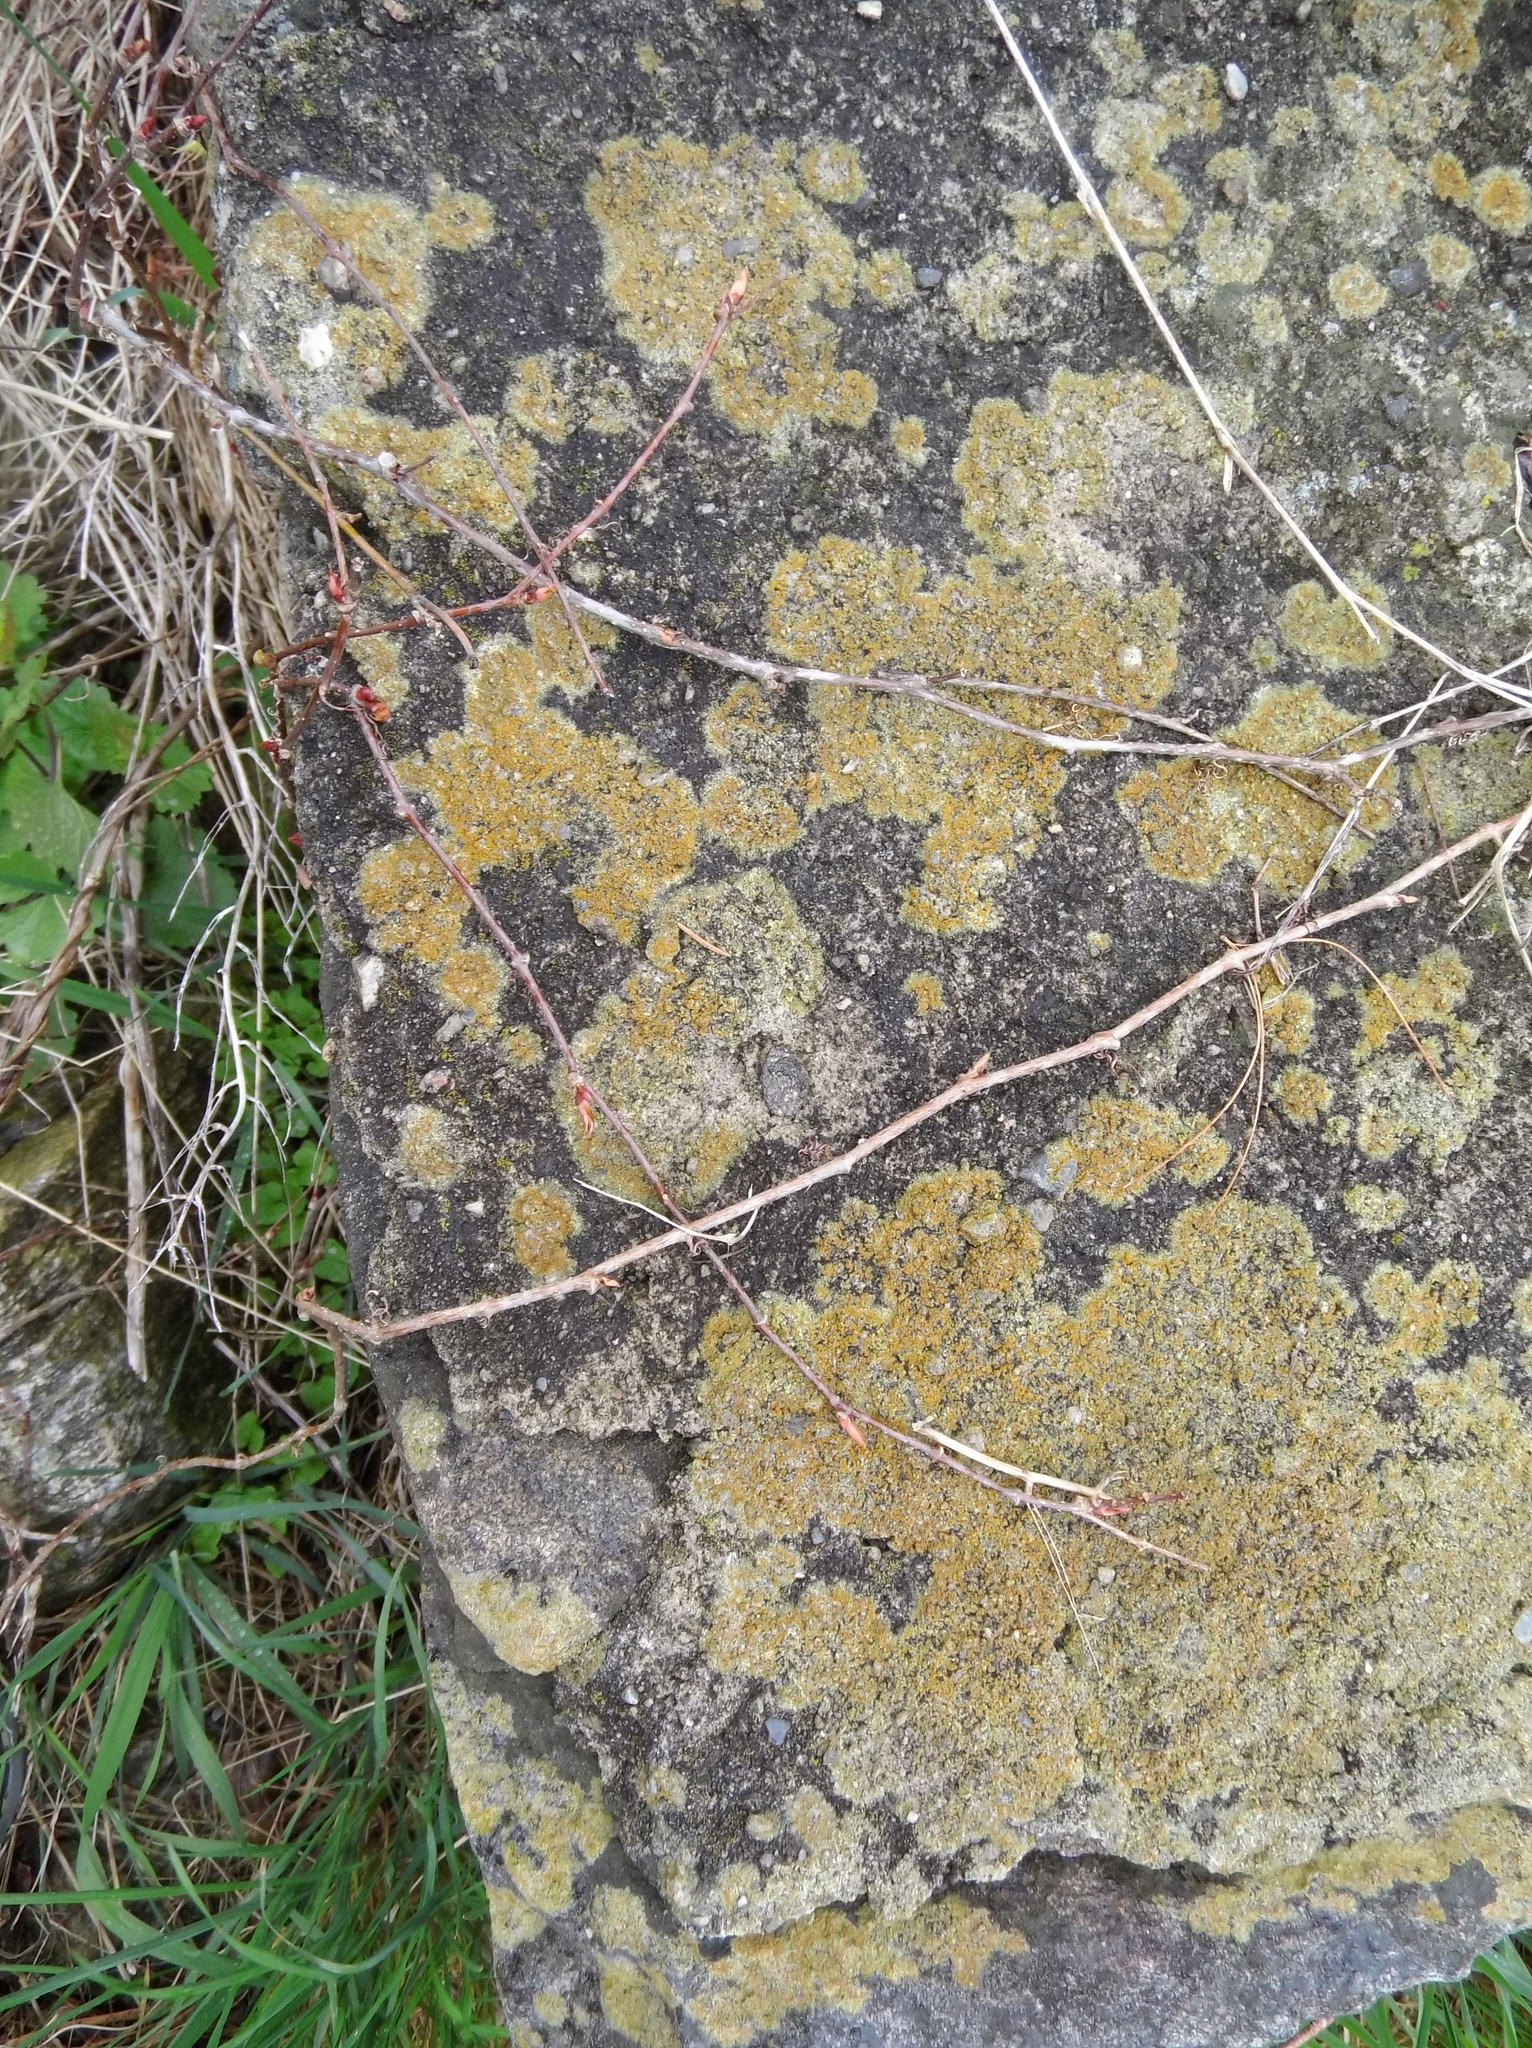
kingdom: Fungi
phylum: Ascomycota
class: Lecanoromycetes
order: Teloschistales
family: Teloschistaceae
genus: Xanthocarpia
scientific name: Xanthocarpia feracissima
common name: Sidewalk firedot
